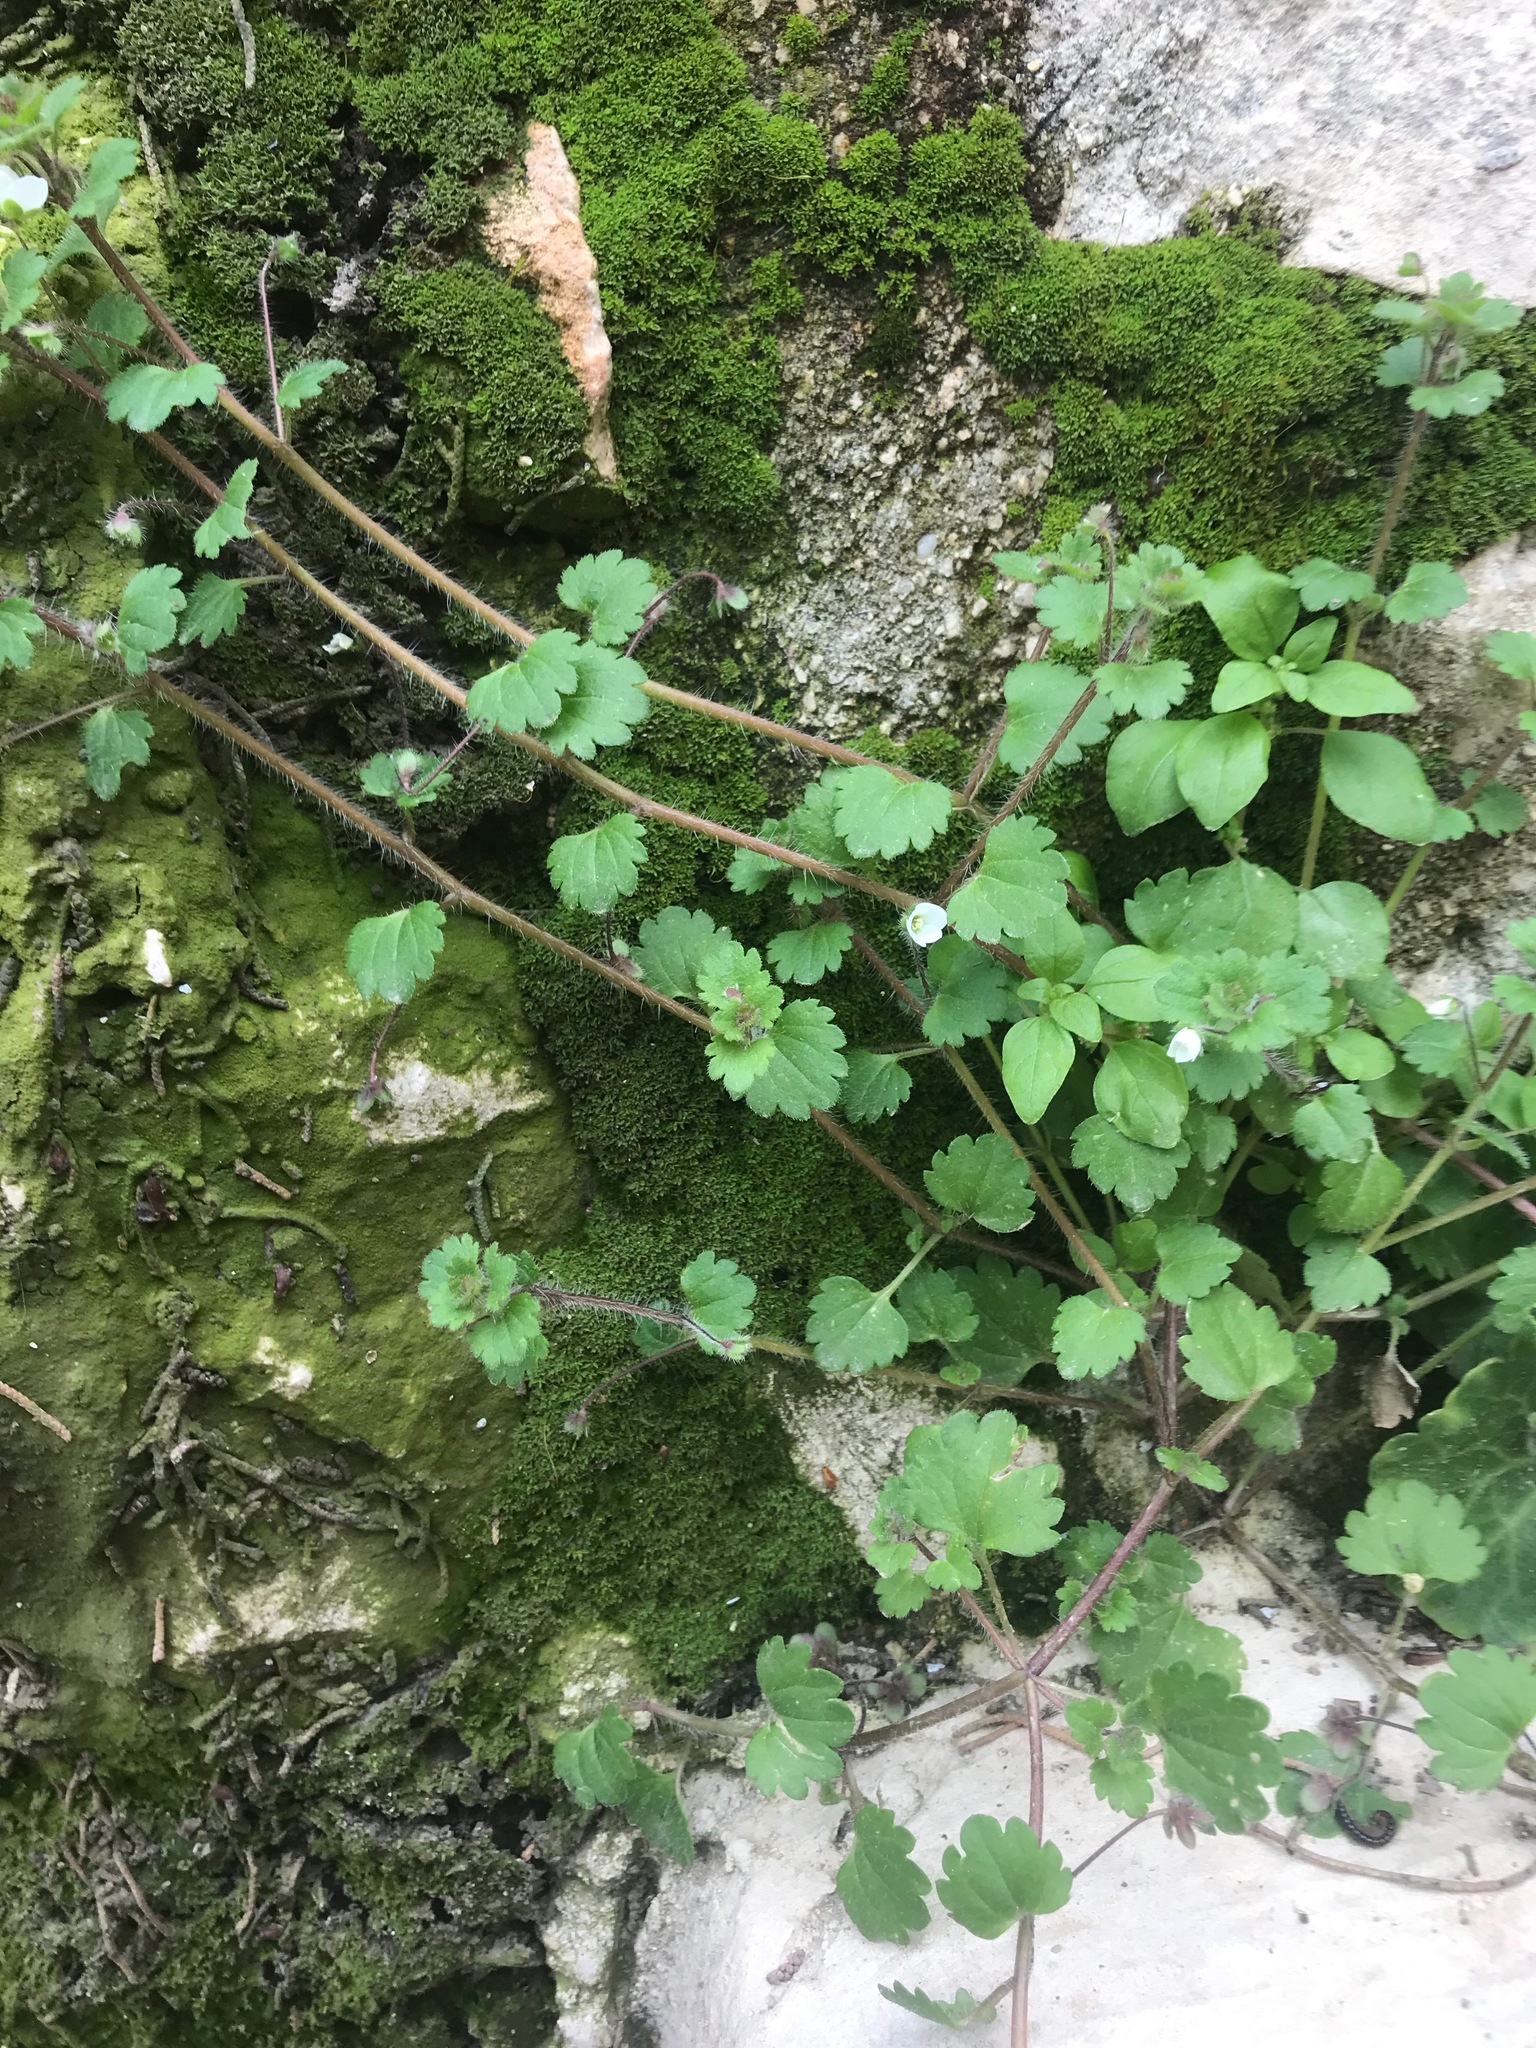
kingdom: Plantae
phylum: Tracheophyta
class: Magnoliopsida
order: Lamiales
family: Plantaginaceae
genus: Veronica
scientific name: Veronica cymbalaria
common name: Pale speedwell
